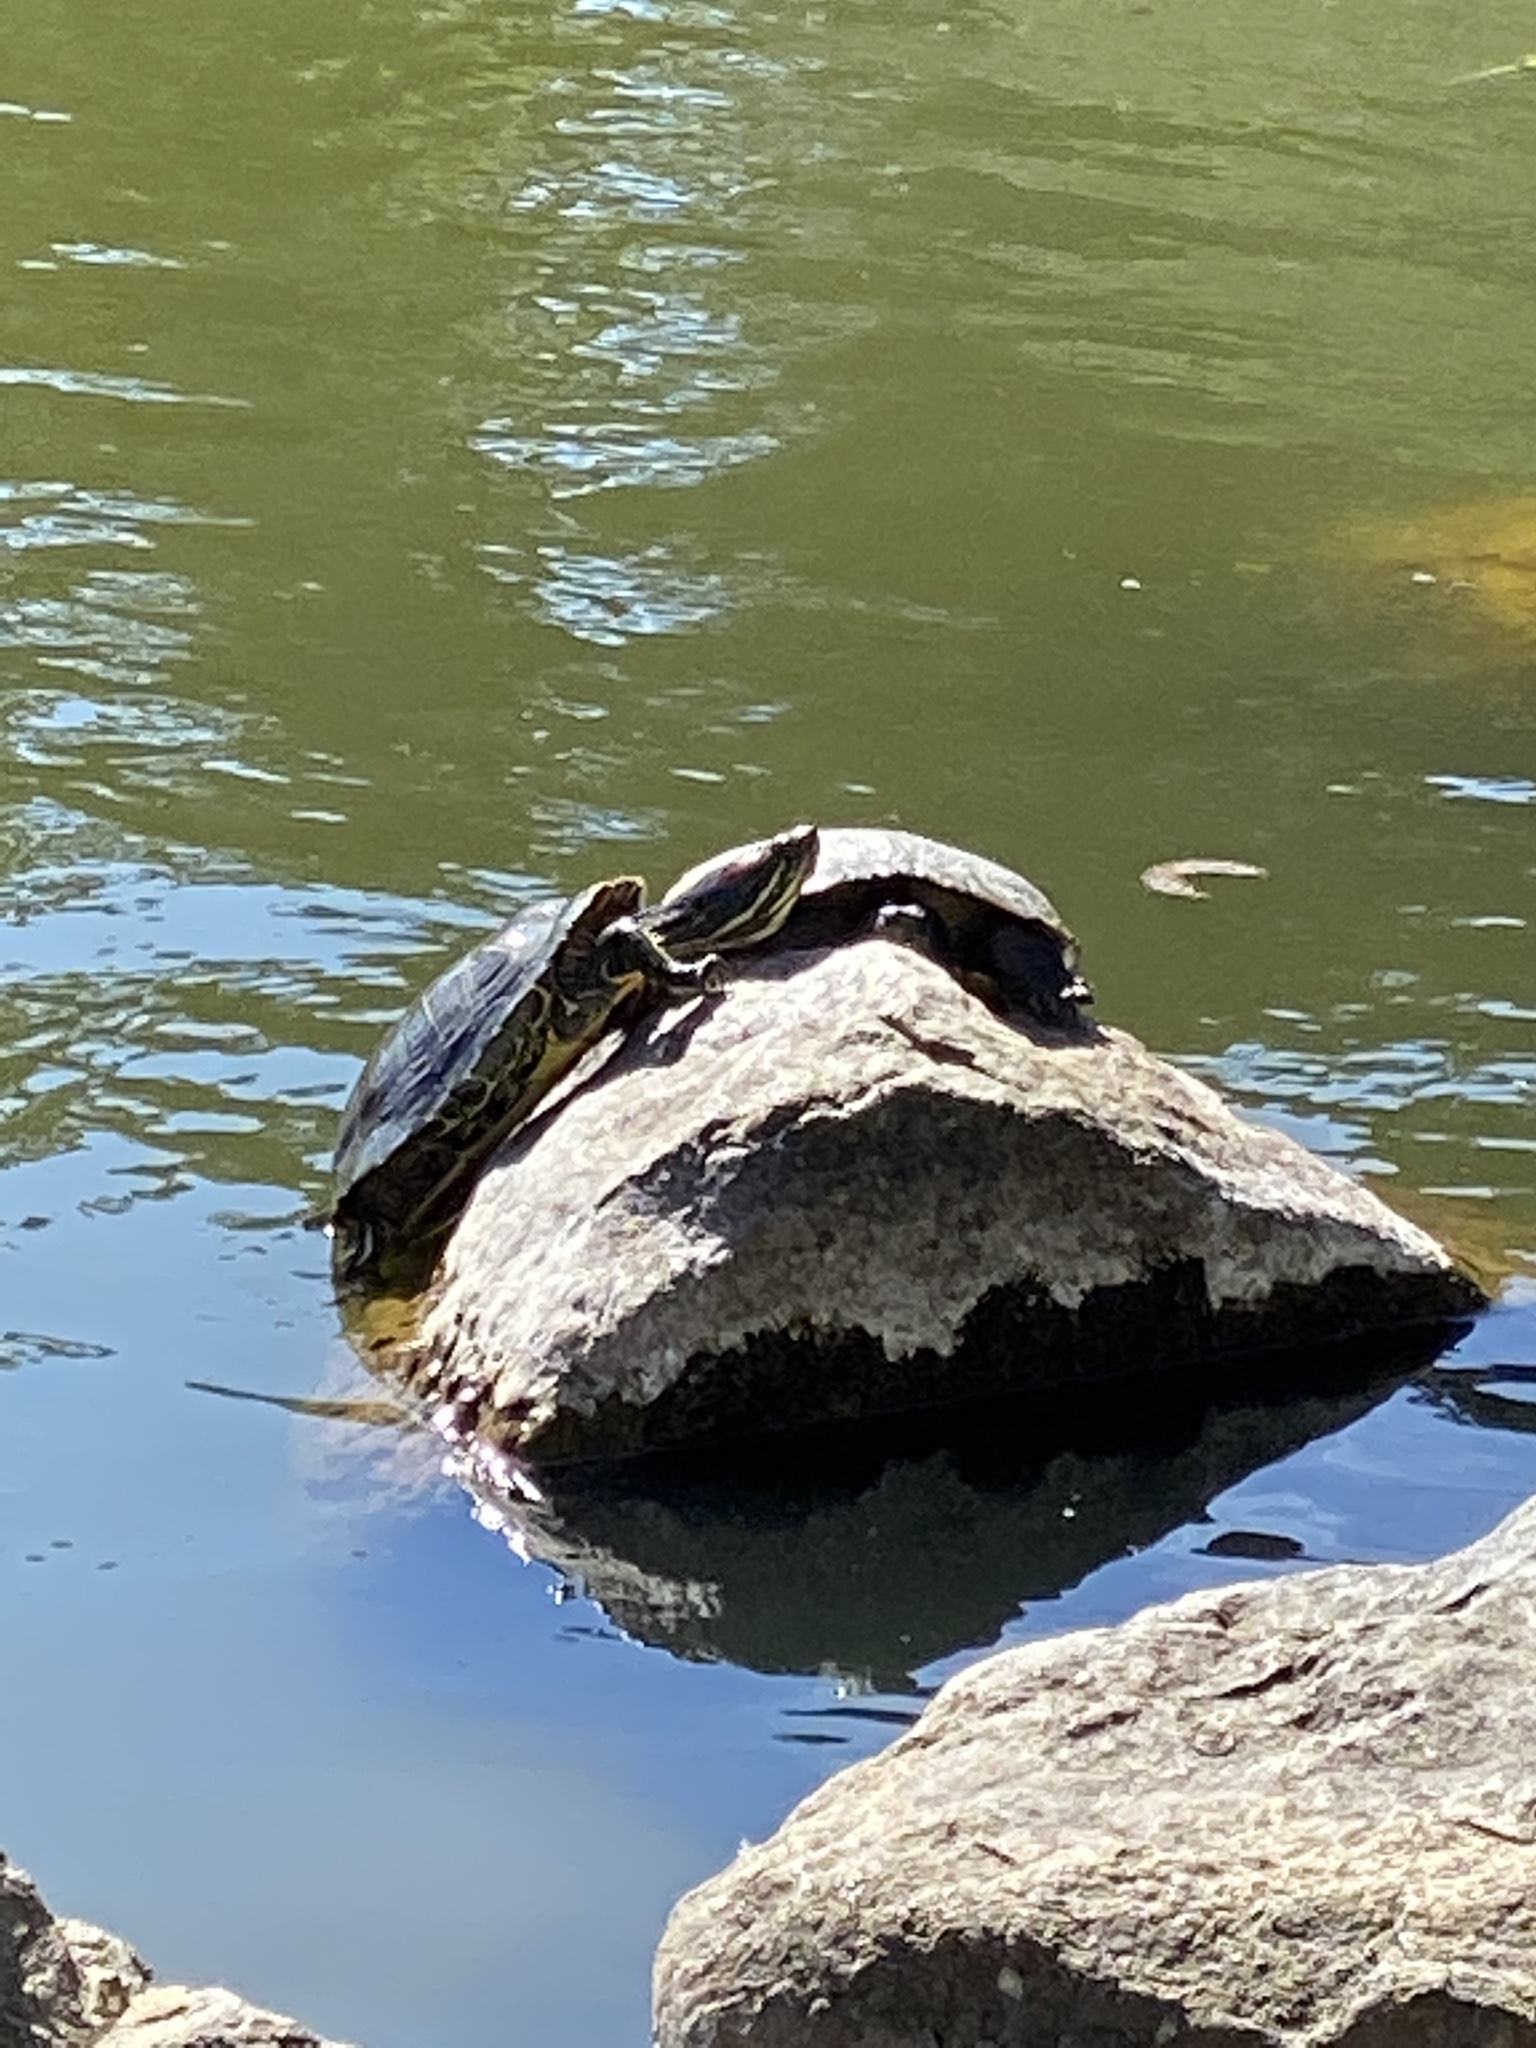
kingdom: Animalia
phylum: Chordata
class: Testudines
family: Emydidae
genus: Trachemys
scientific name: Trachemys scripta
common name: Slider
